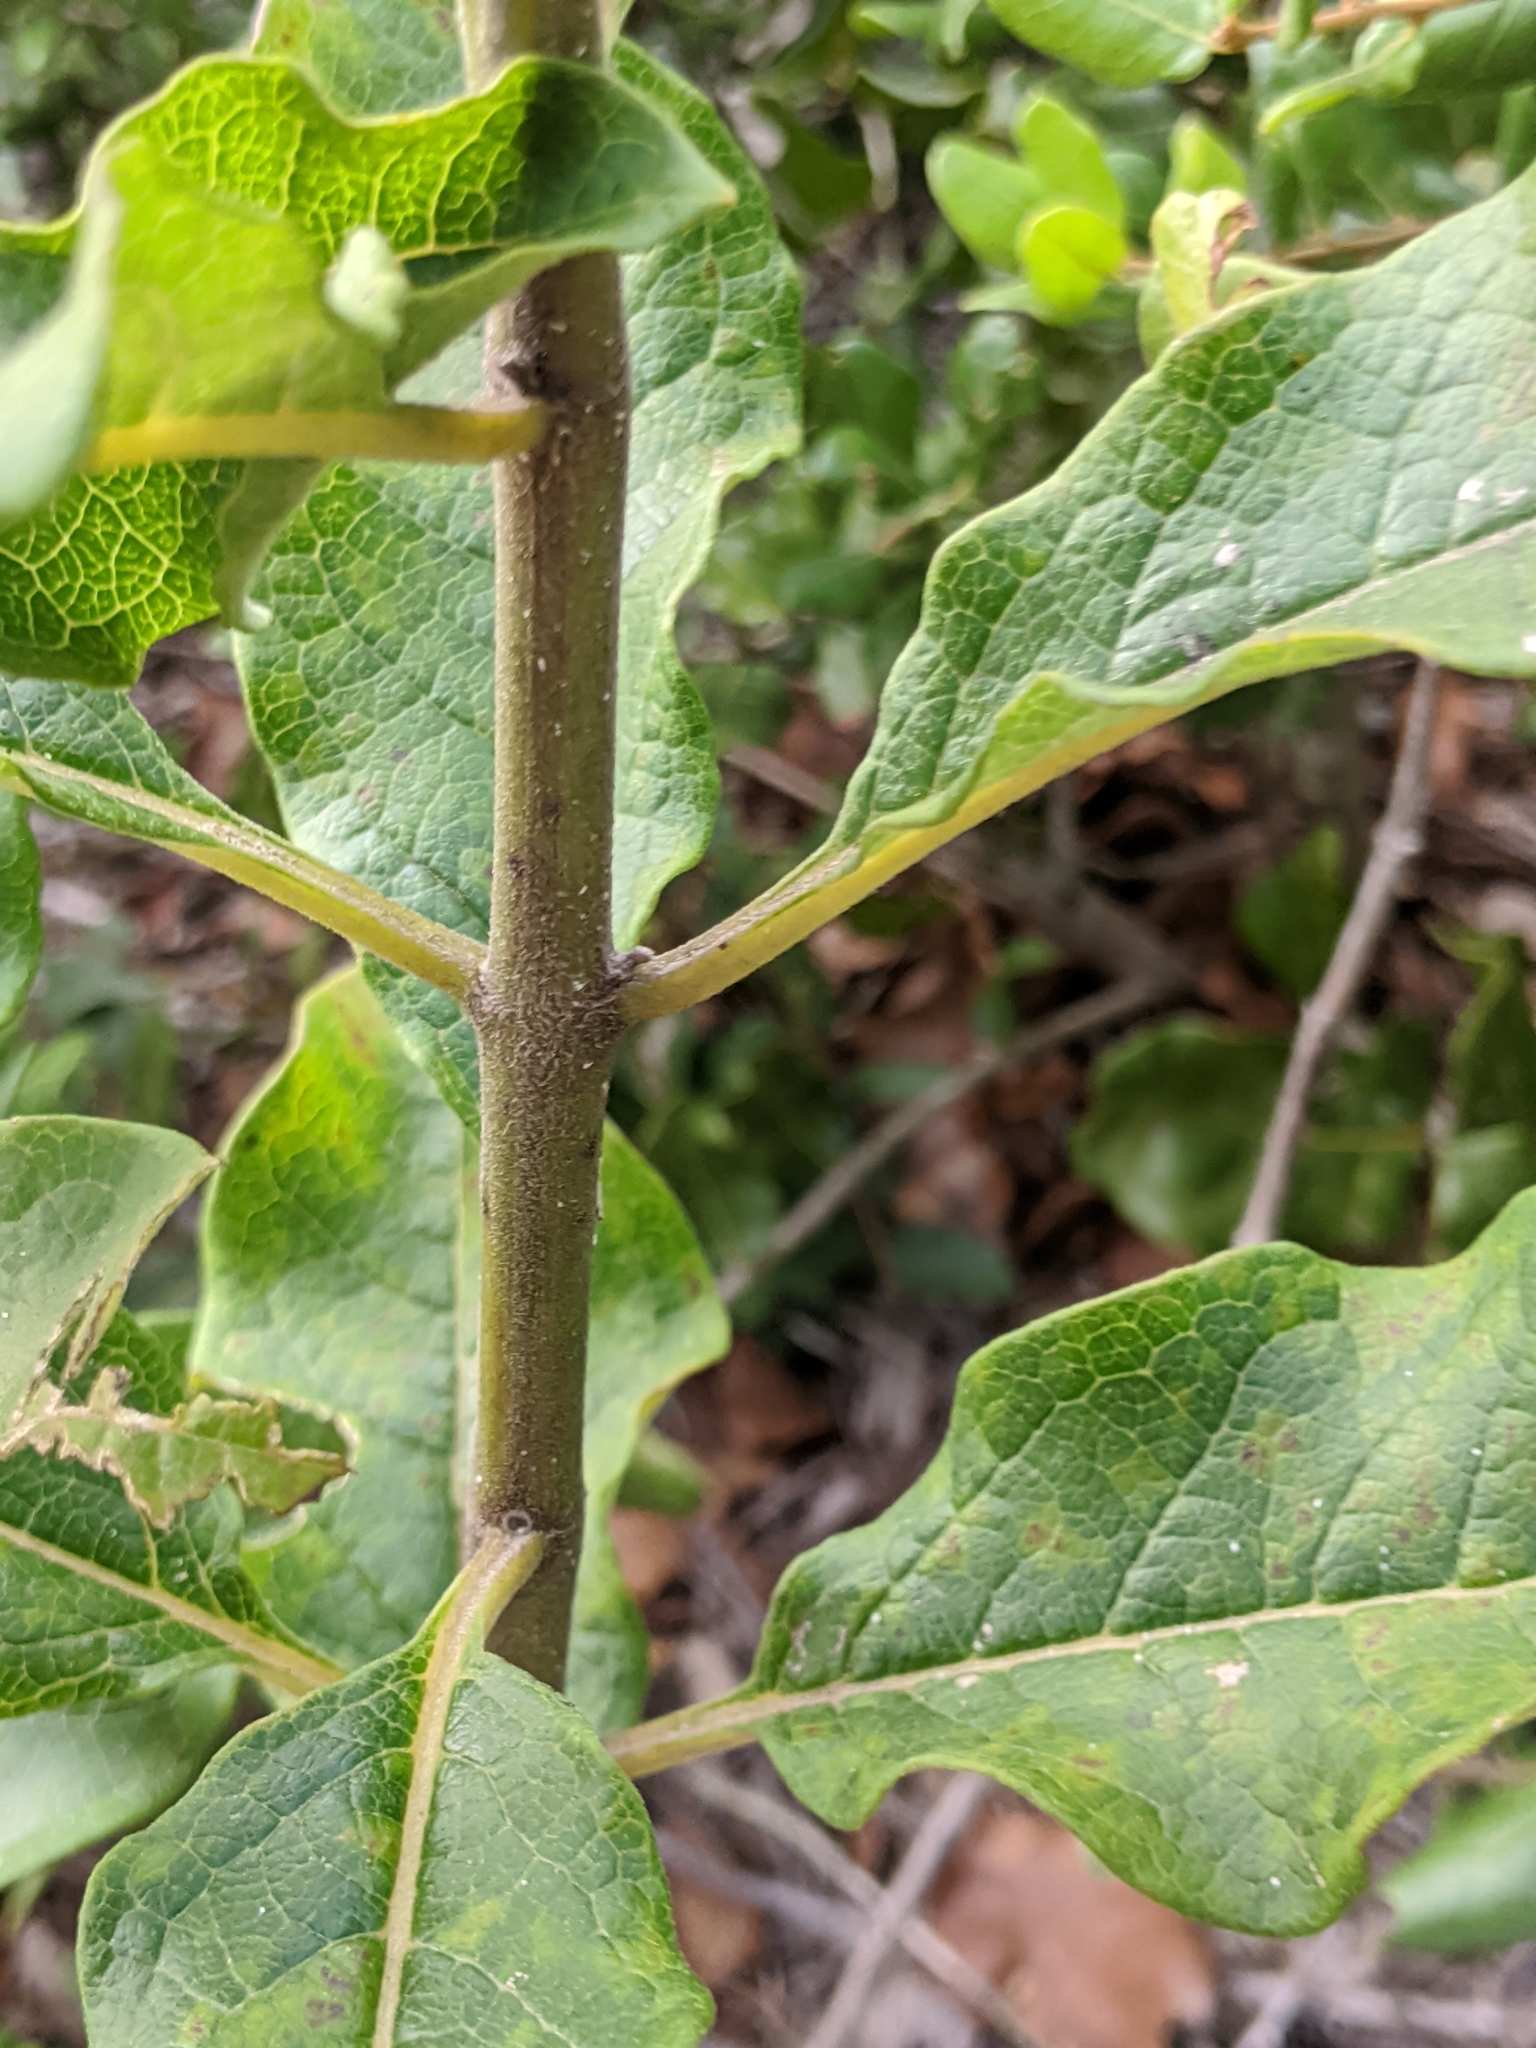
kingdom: Plantae
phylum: Tracheophyta
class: Magnoliopsida
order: Gentianales
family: Apocynaceae
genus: Asclepias
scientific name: Asclepias tomentosa
